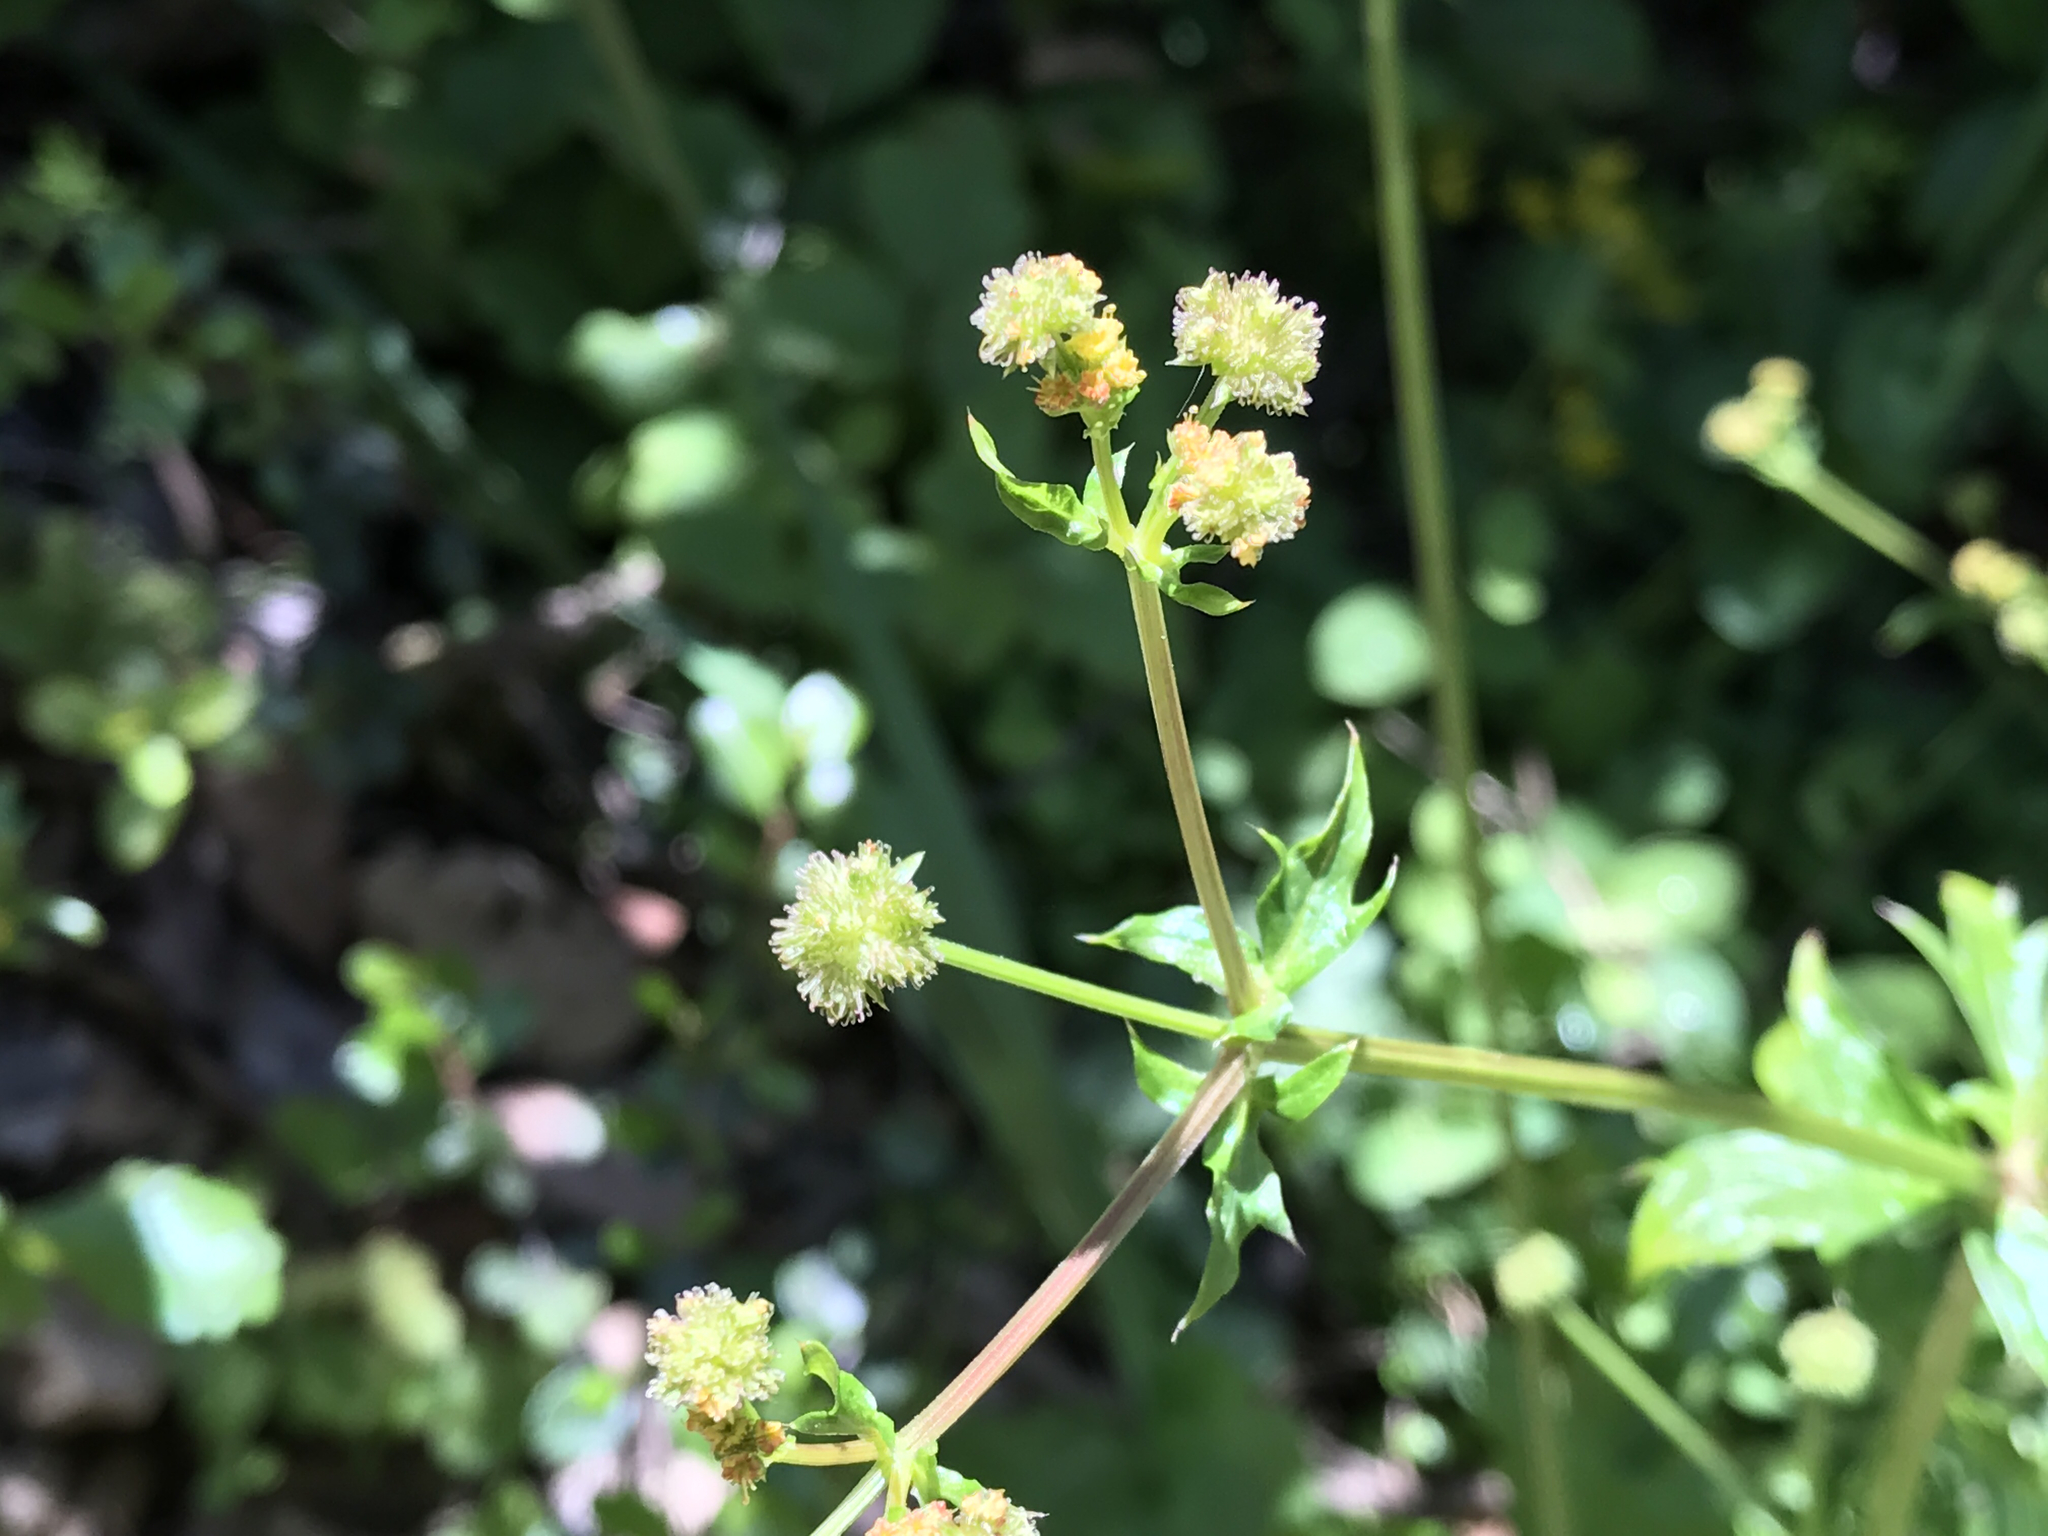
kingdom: Plantae
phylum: Tracheophyta
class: Magnoliopsida
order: Apiales
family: Apiaceae
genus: Sanicula
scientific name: Sanicula crassicaulis
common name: Western snakeroot
